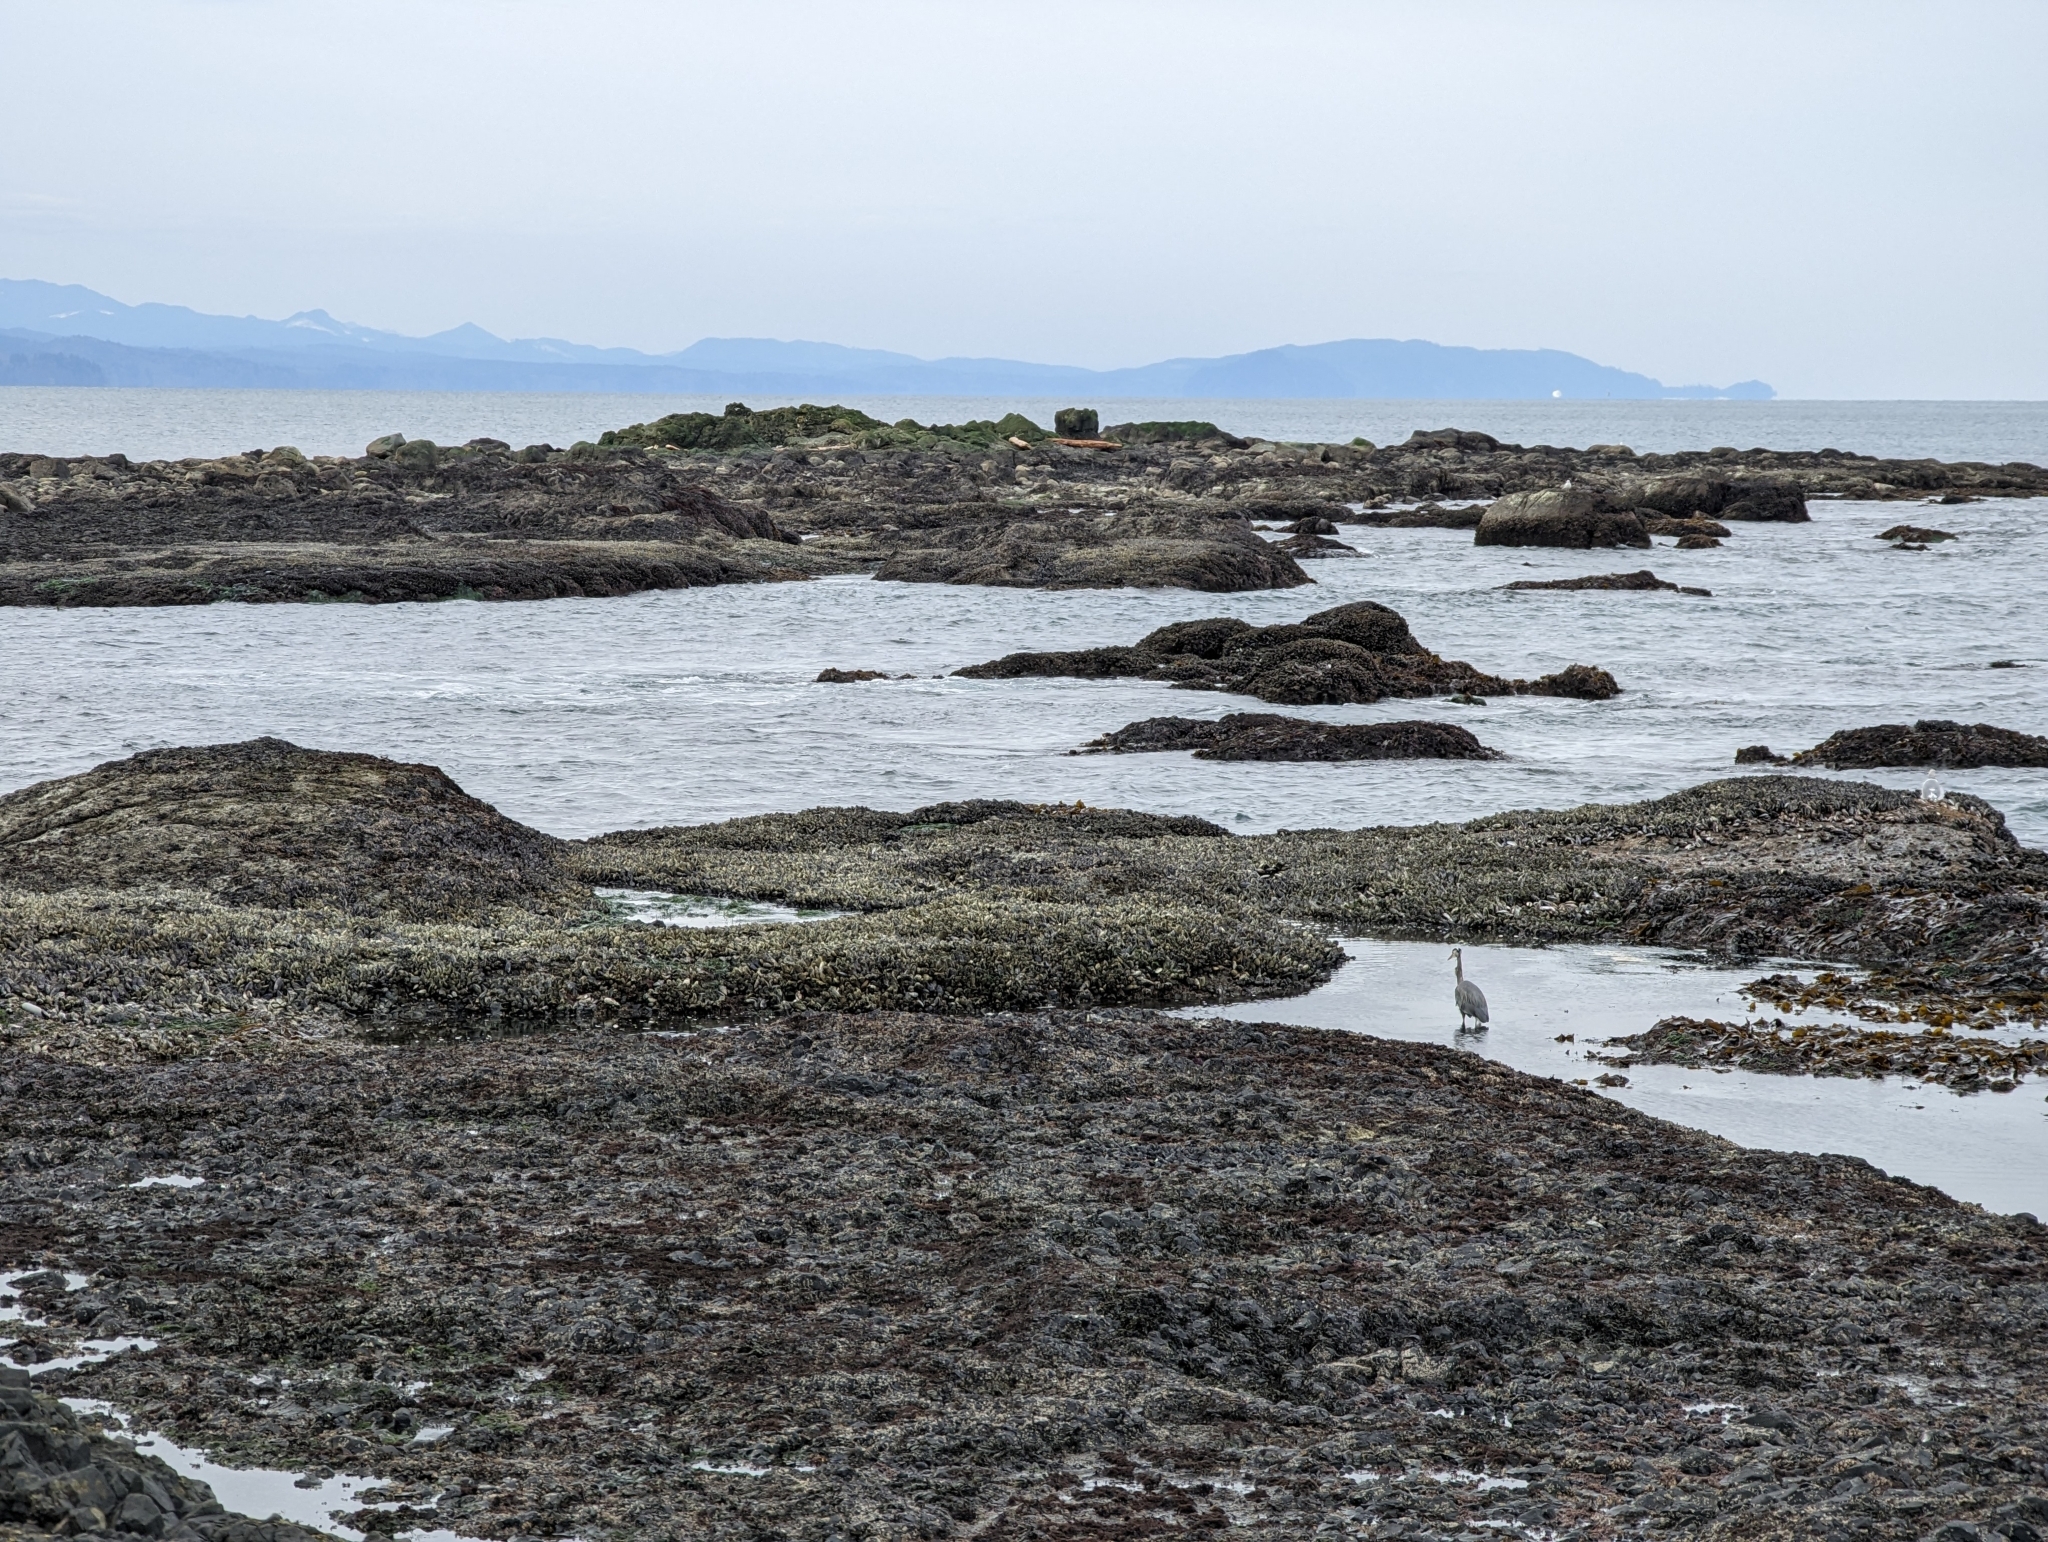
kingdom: Animalia
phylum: Chordata
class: Aves
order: Pelecaniformes
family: Ardeidae
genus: Ardea
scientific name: Ardea herodias
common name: Great blue heron
